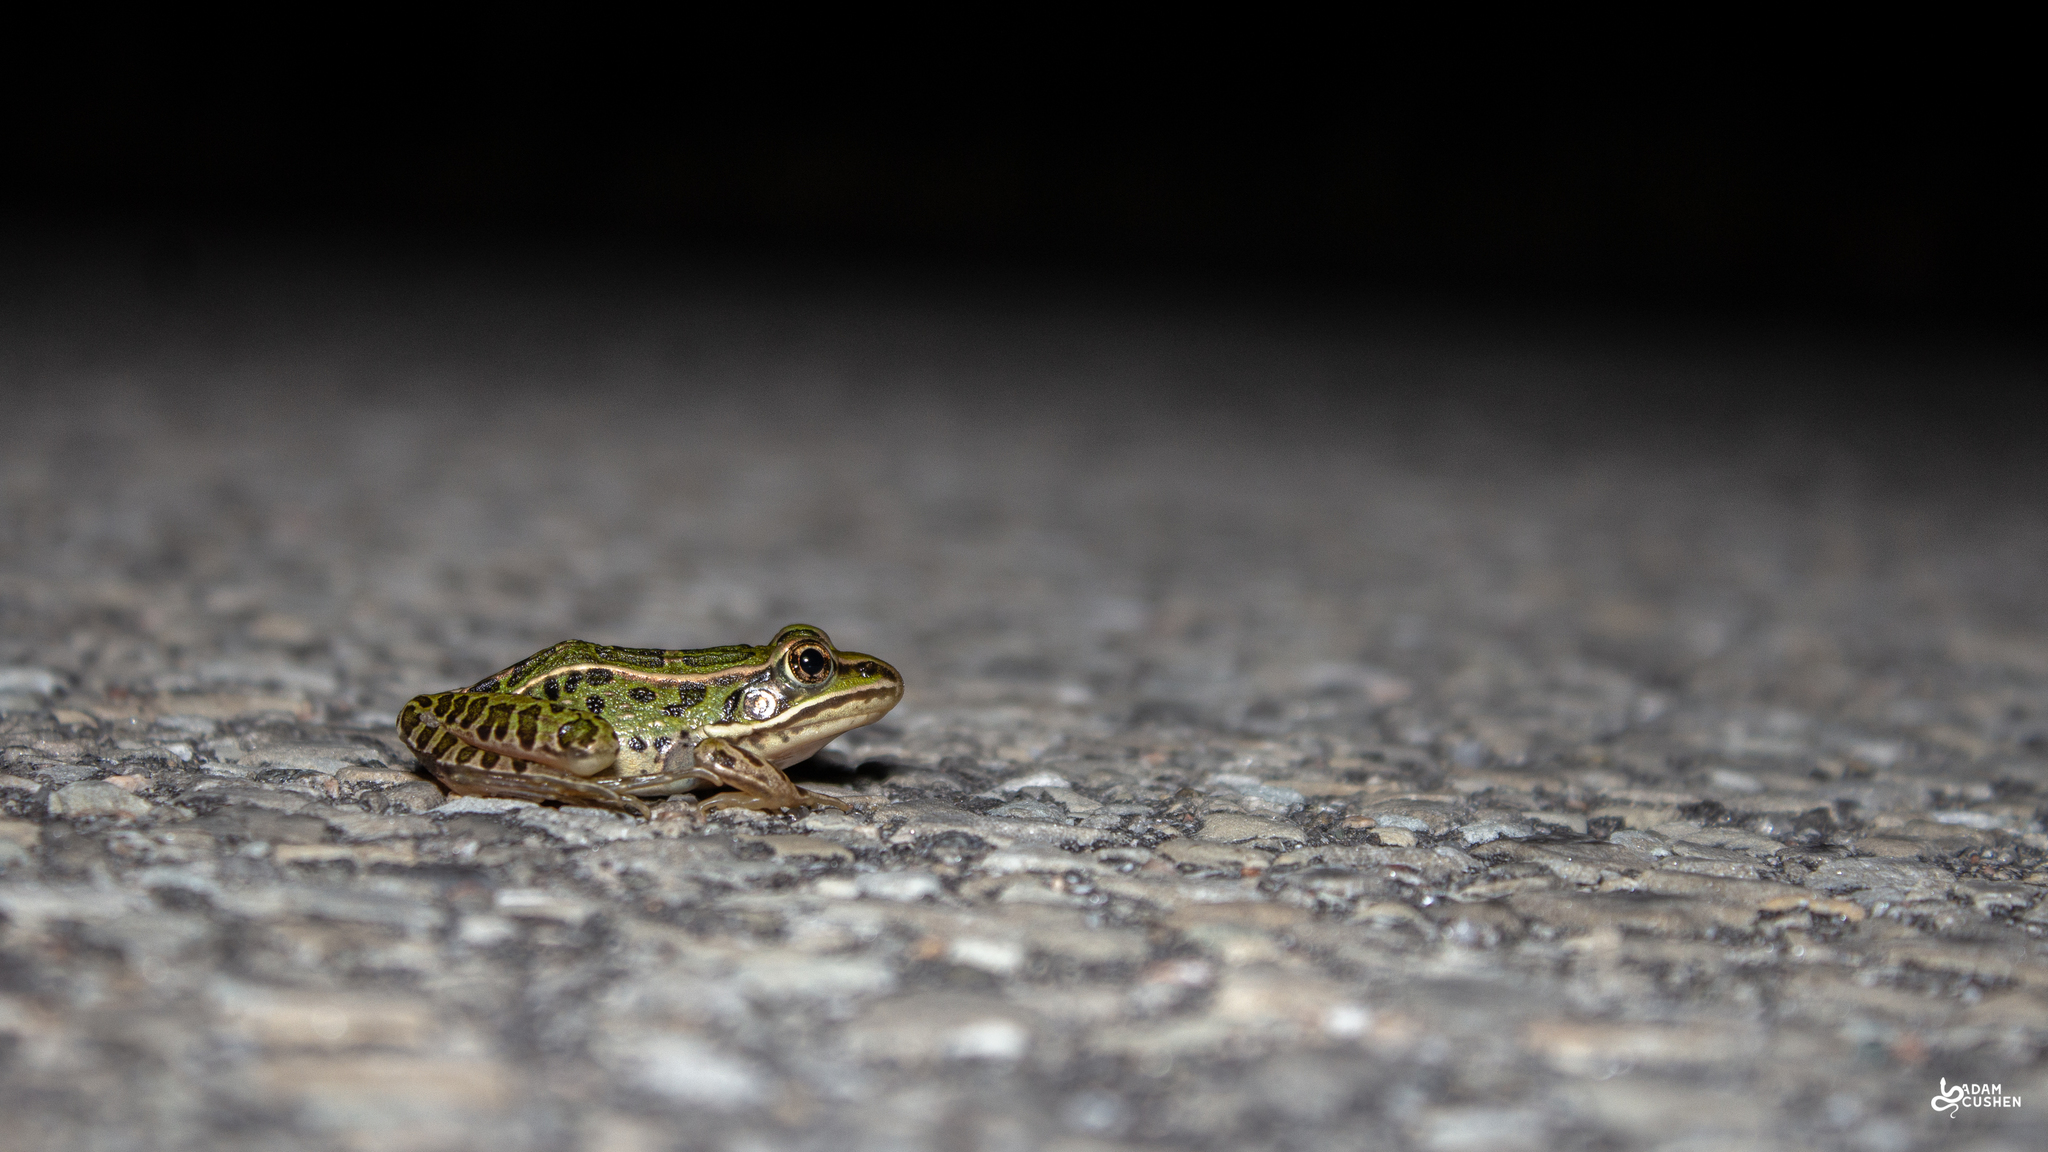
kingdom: Animalia
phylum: Chordata
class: Amphibia
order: Anura
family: Ranidae
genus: Lithobates
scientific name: Lithobates pipiens
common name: Northern leopard frog
